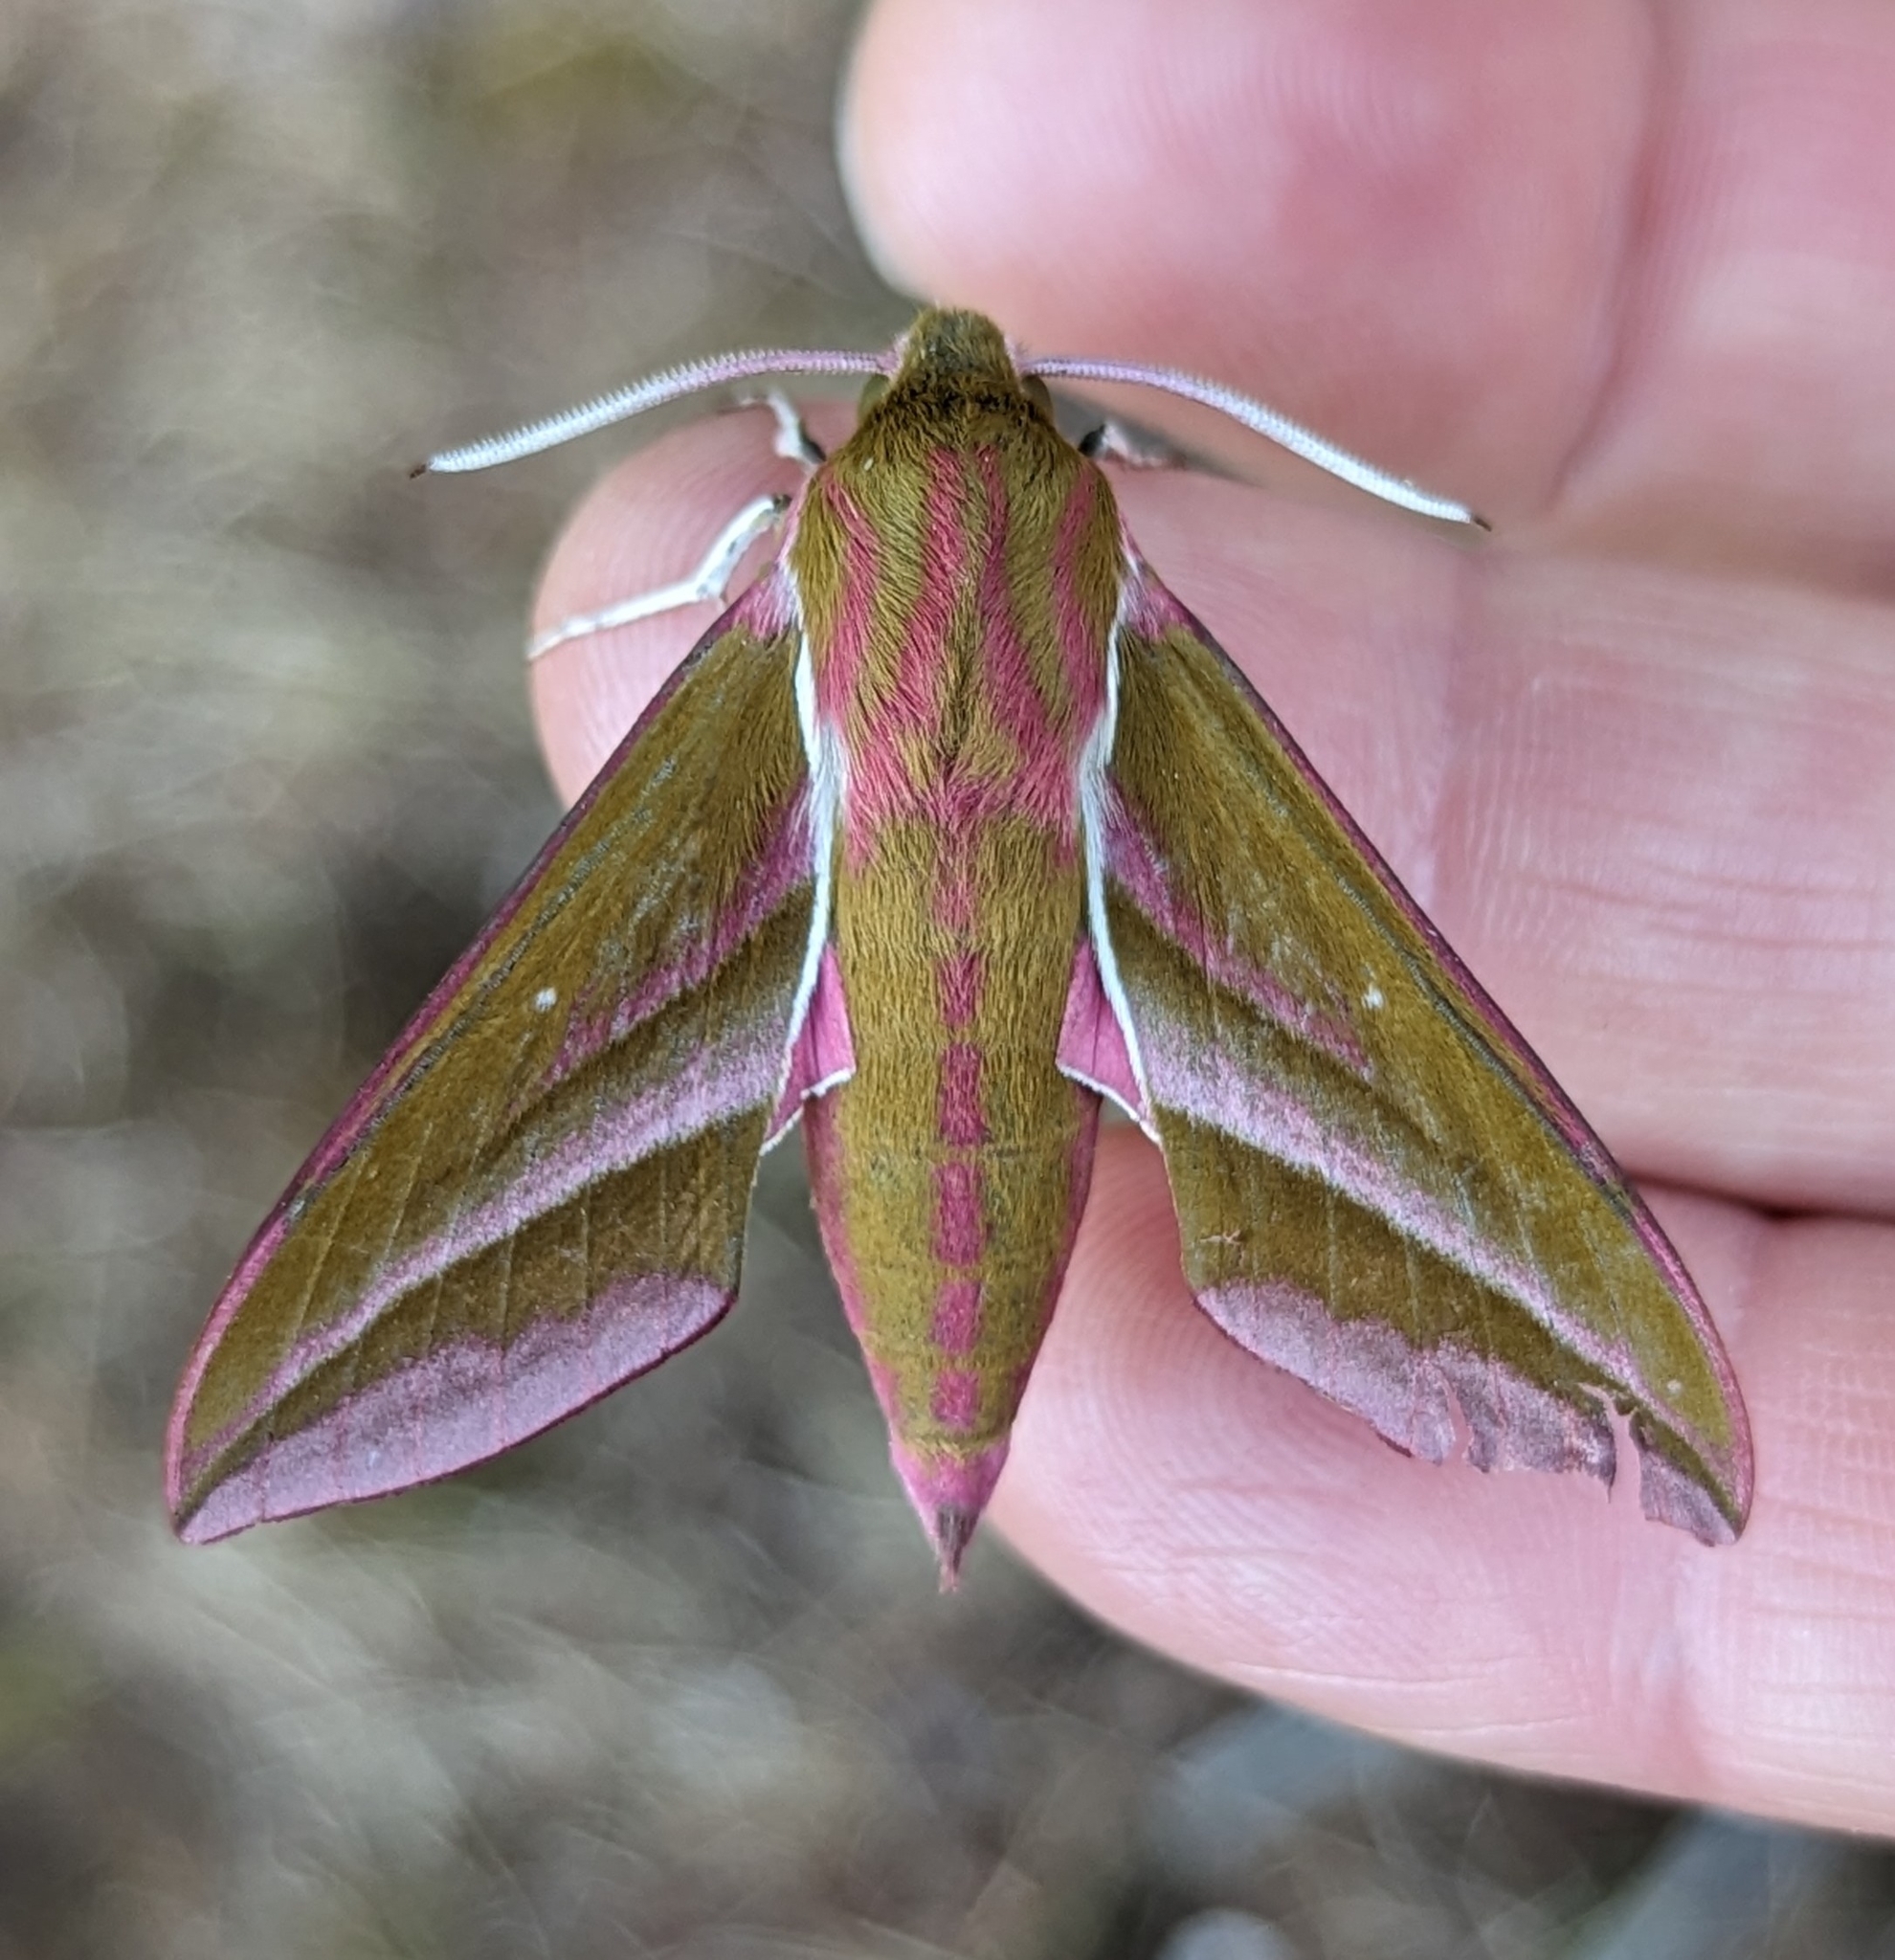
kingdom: Animalia
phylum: Arthropoda
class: Insecta
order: Lepidoptera
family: Sphingidae
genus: Deilephila
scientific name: Deilephila elpenor
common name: Elephant hawk-moth
